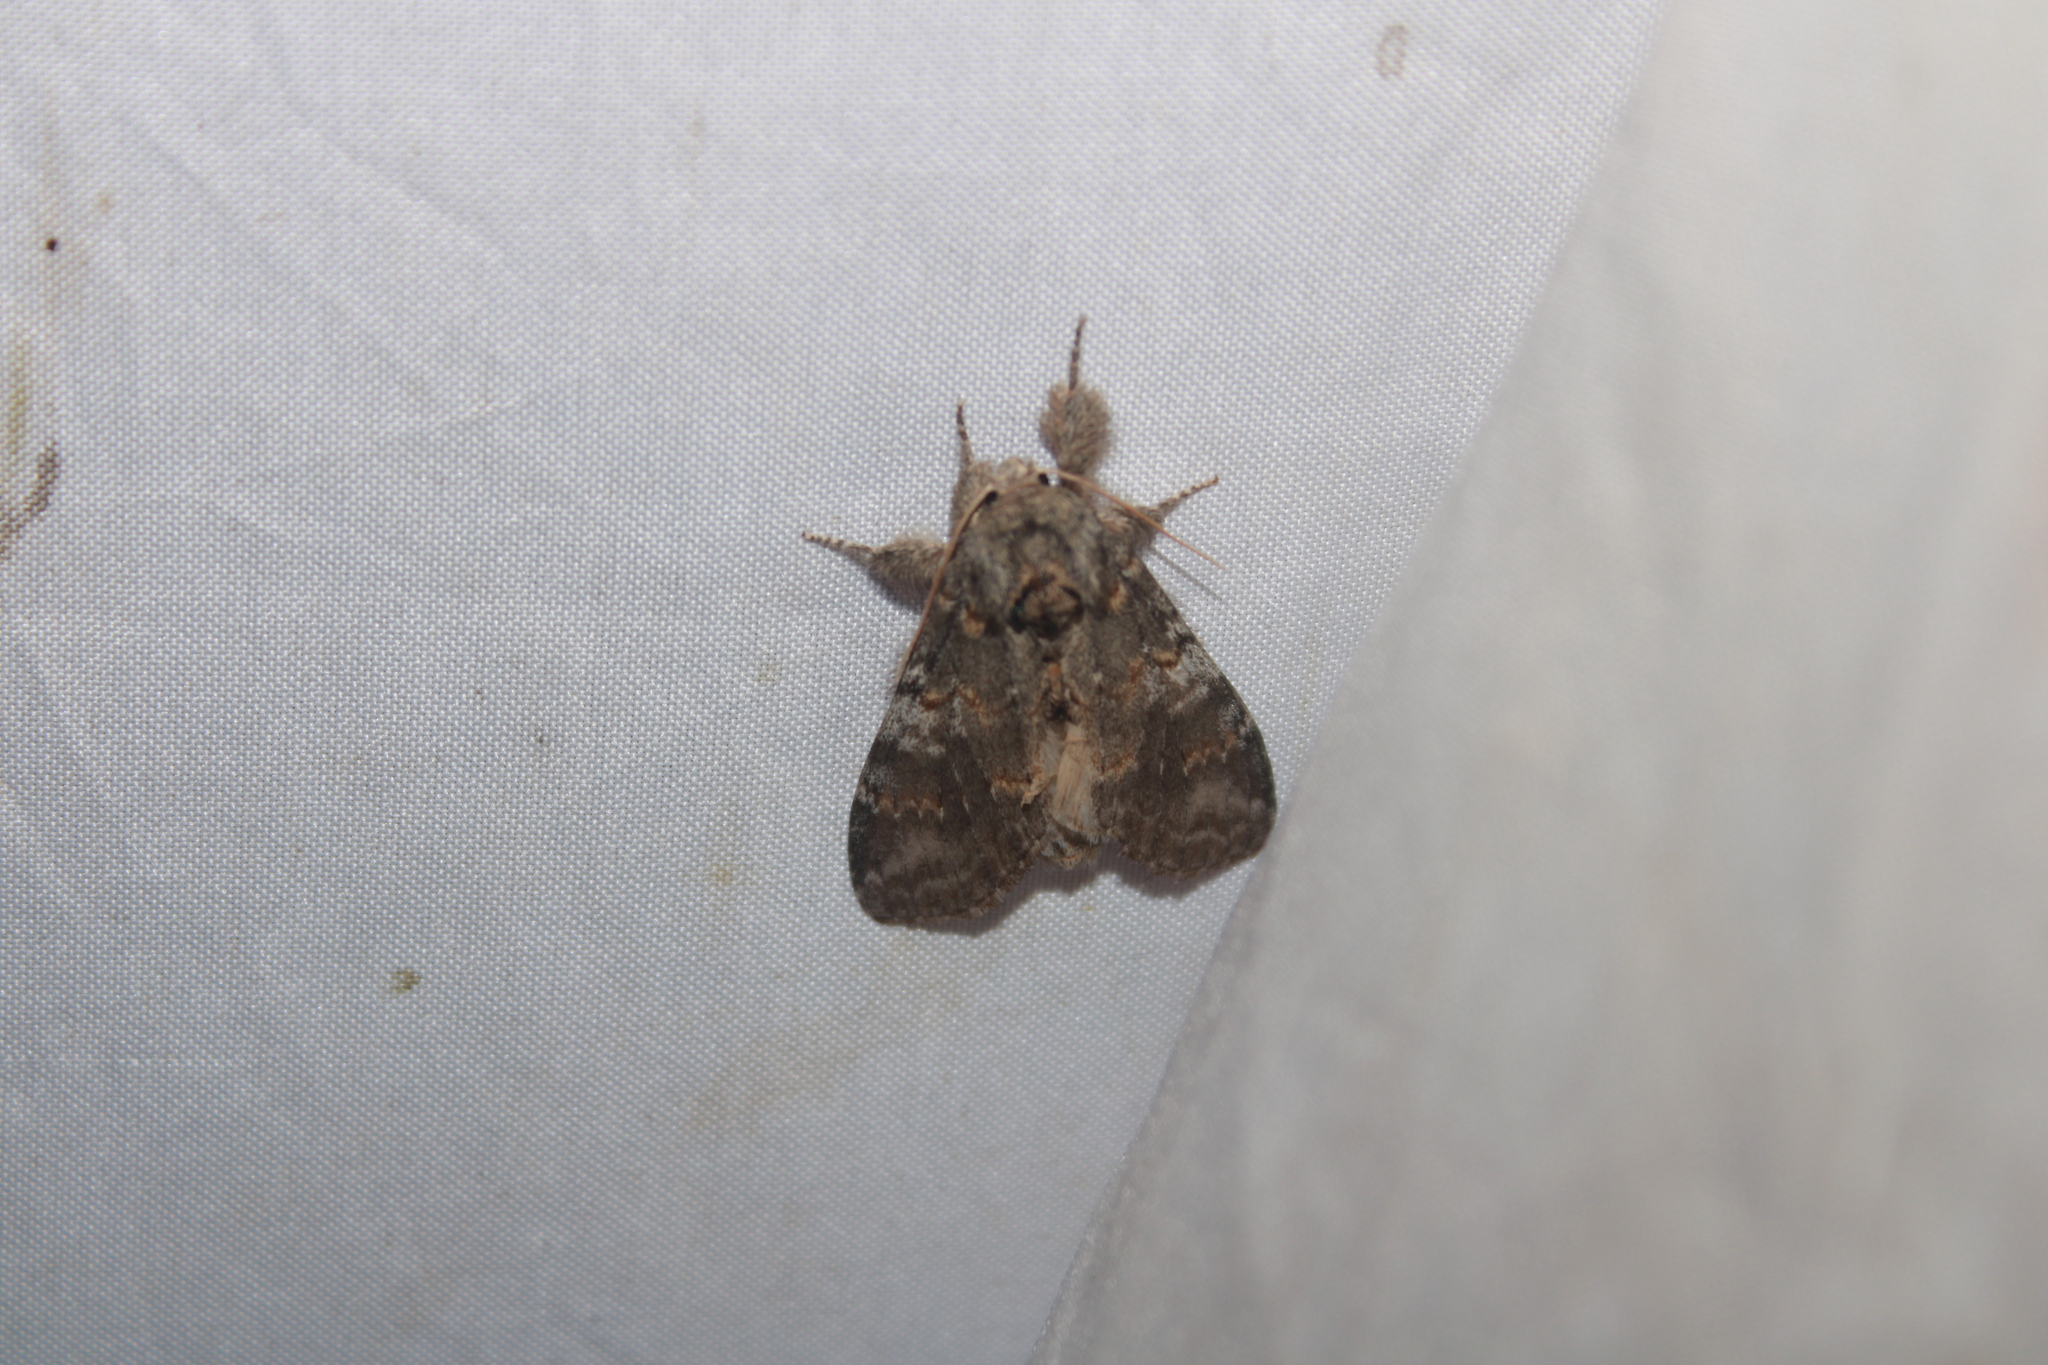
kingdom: Animalia
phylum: Arthropoda
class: Insecta
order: Lepidoptera
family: Notodontidae
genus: Peridea
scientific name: Peridea angulosa
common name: Angulose prominent
